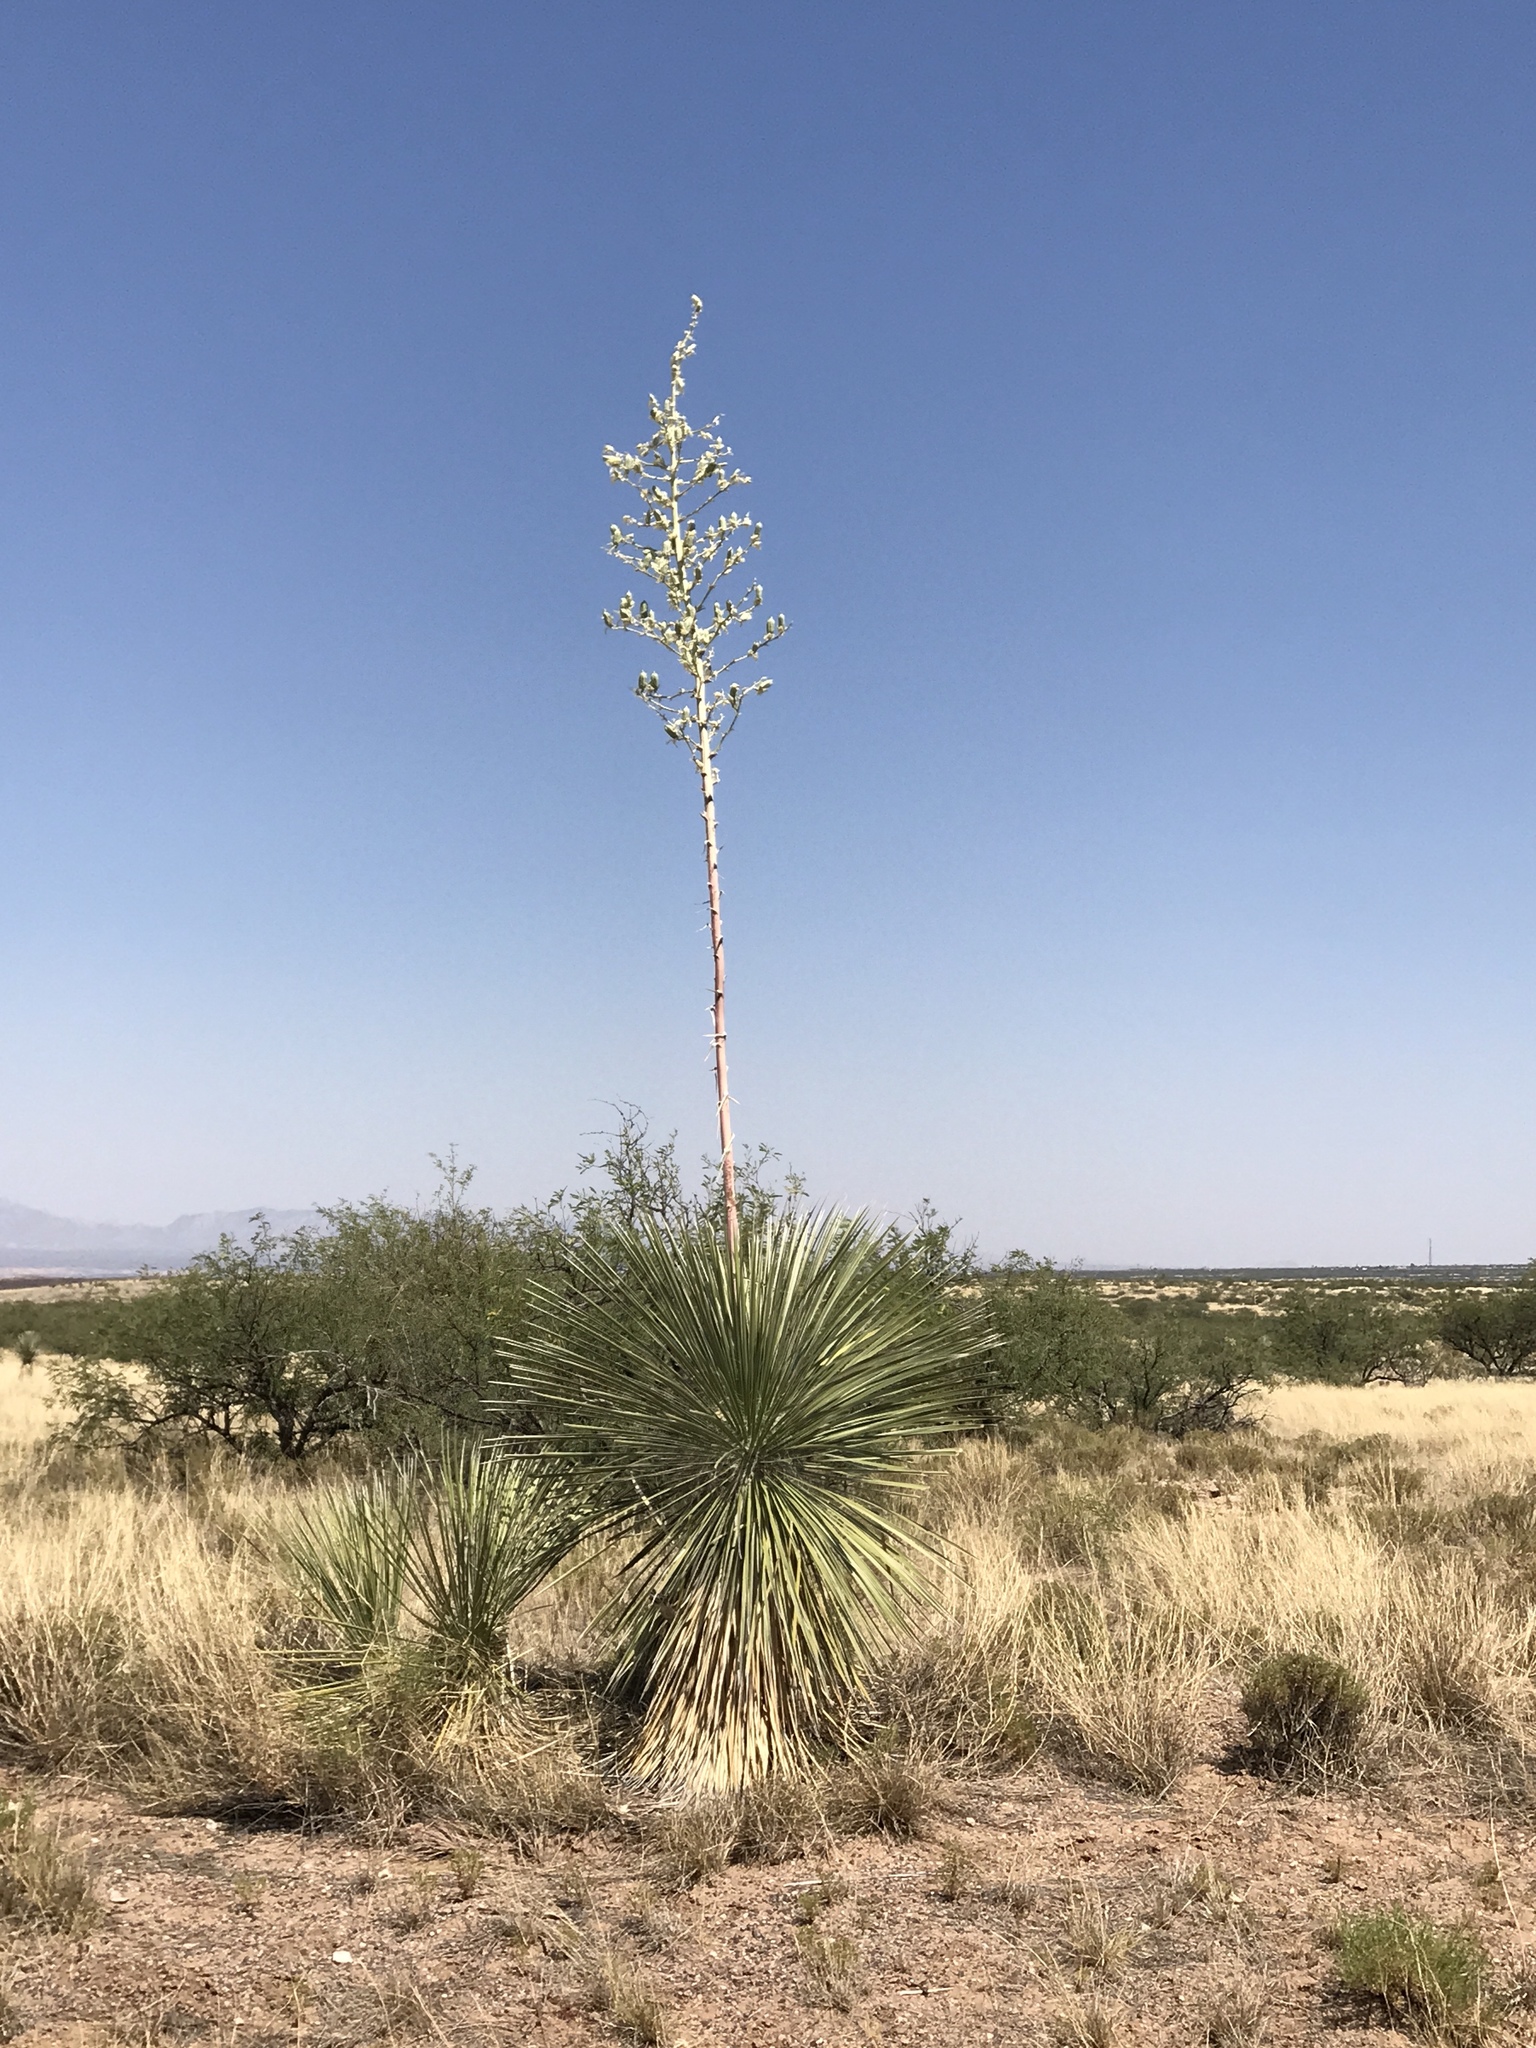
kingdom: Plantae
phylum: Tracheophyta
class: Liliopsida
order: Asparagales
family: Asparagaceae
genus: Yucca
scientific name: Yucca elata
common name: Palmella
